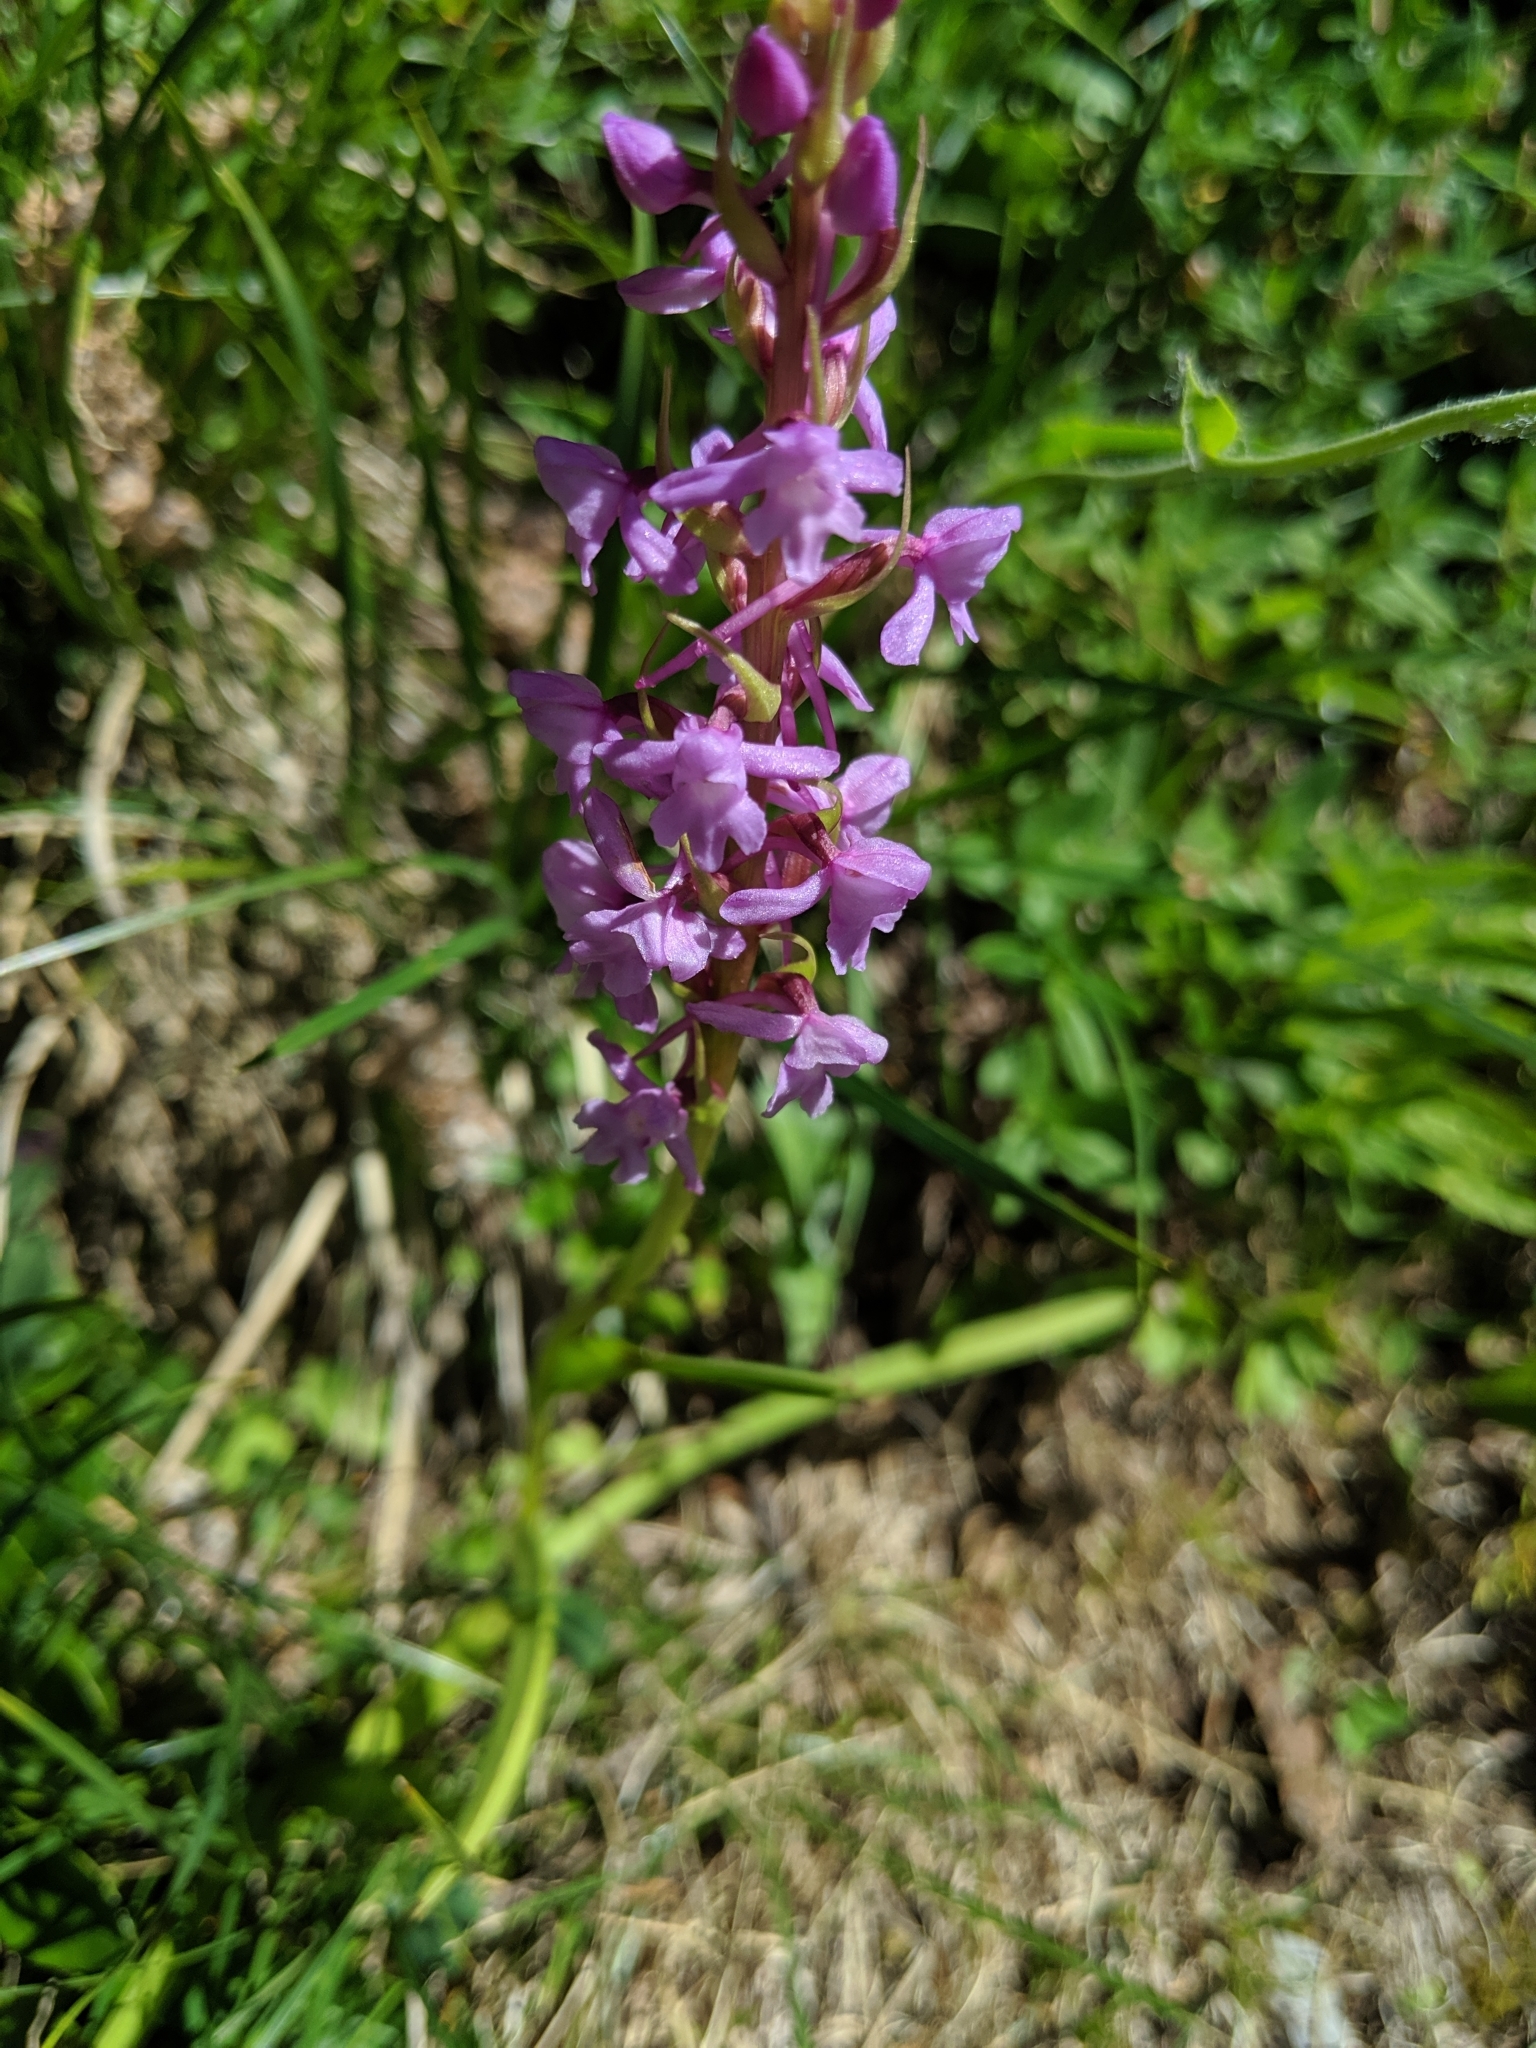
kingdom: Plantae
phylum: Tracheophyta
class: Liliopsida
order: Asparagales
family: Orchidaceae
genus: Gymnadenia
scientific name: Gymnadenia conopsea
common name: Fragrant orchid
